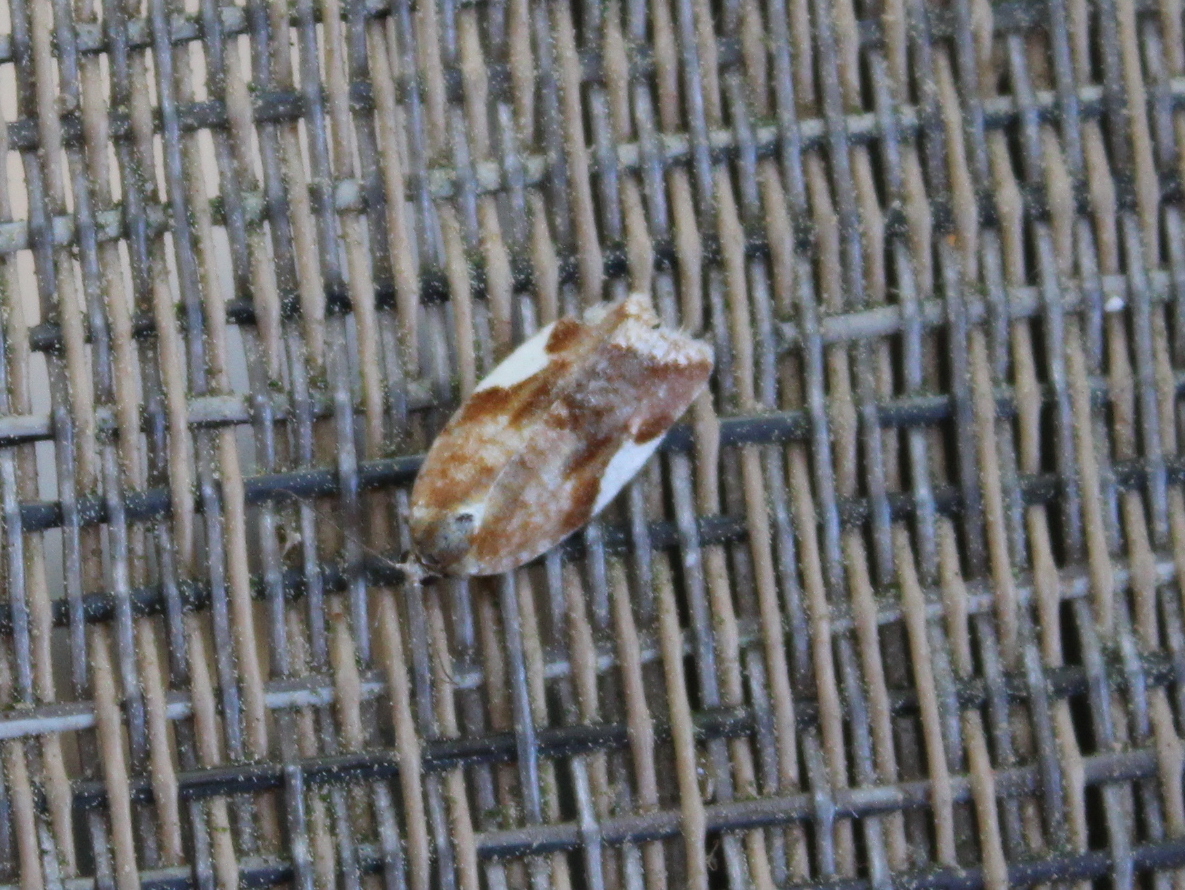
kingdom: Animalia
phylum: Arthropoda
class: Insecta
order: Lepidoptera
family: Tortricidae
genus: Clepsis
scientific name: Clepsis persicana
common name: White triangle tortrix
